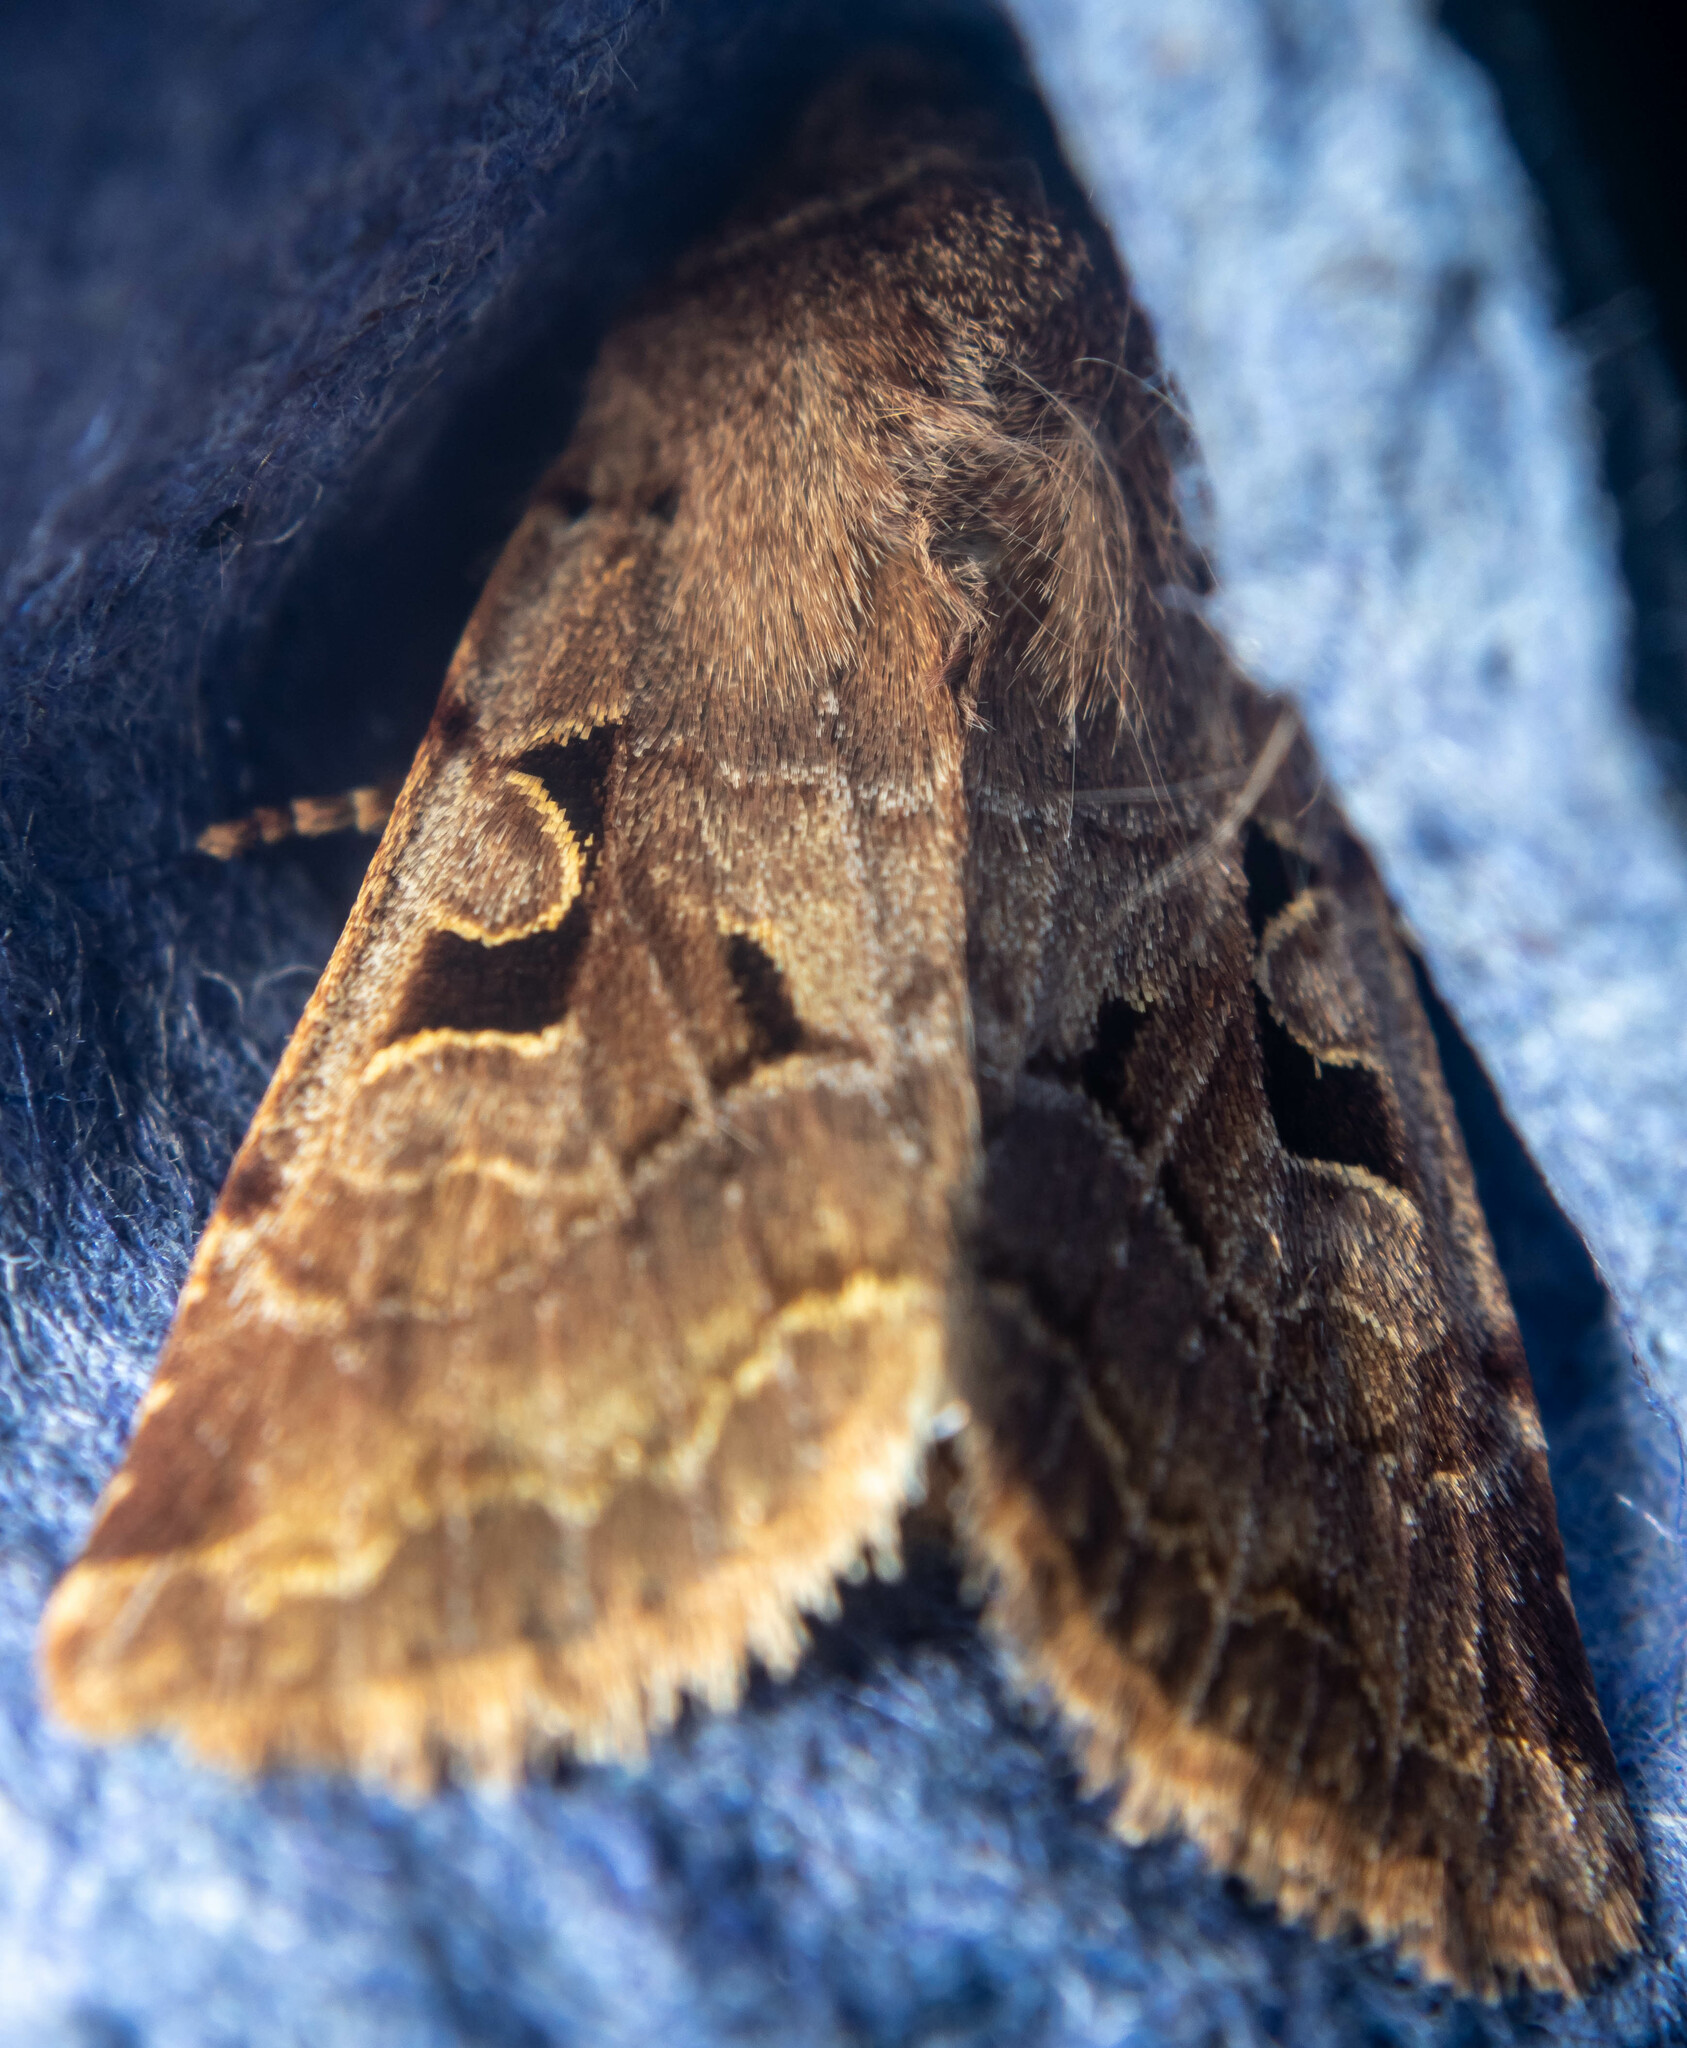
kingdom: Animalia
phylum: Arthropoda
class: Insecta
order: Lepidoptera
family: Noctuidae
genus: Orthosia
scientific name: Orthosia gothica
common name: Hebrew character
